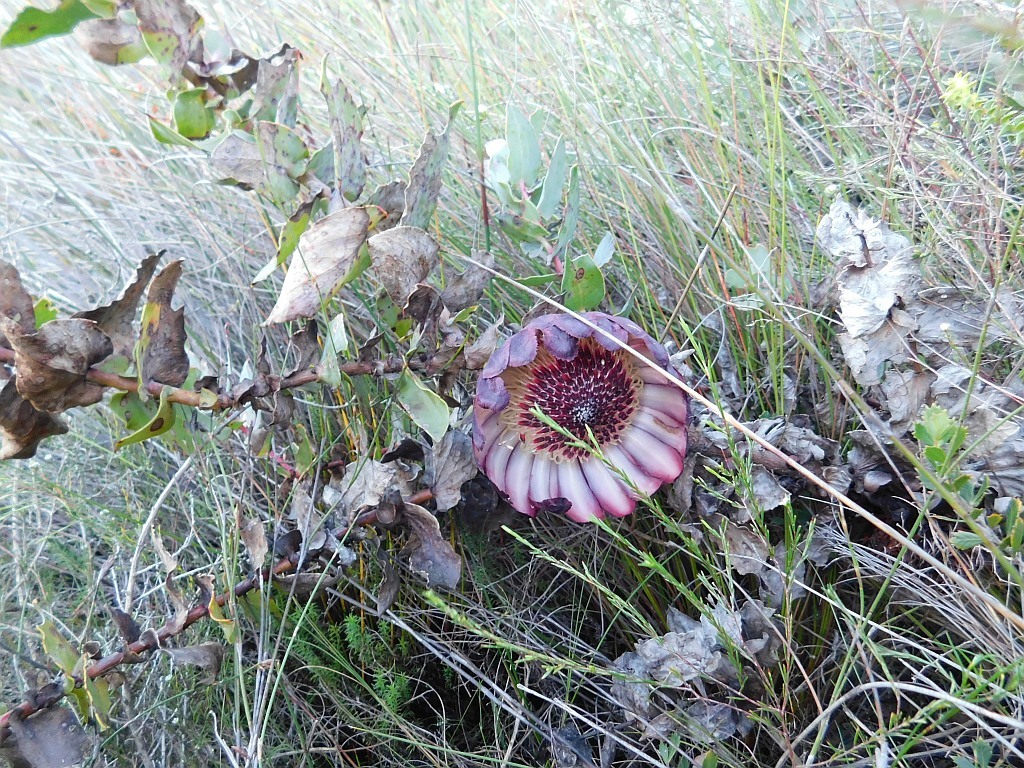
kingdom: Plantae
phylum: Tracheophyta
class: Magnoliopsida
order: Proteales
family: Proteaceae
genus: Protea
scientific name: Protea amplexicaulis
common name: Clasping-leaf sugarbush
